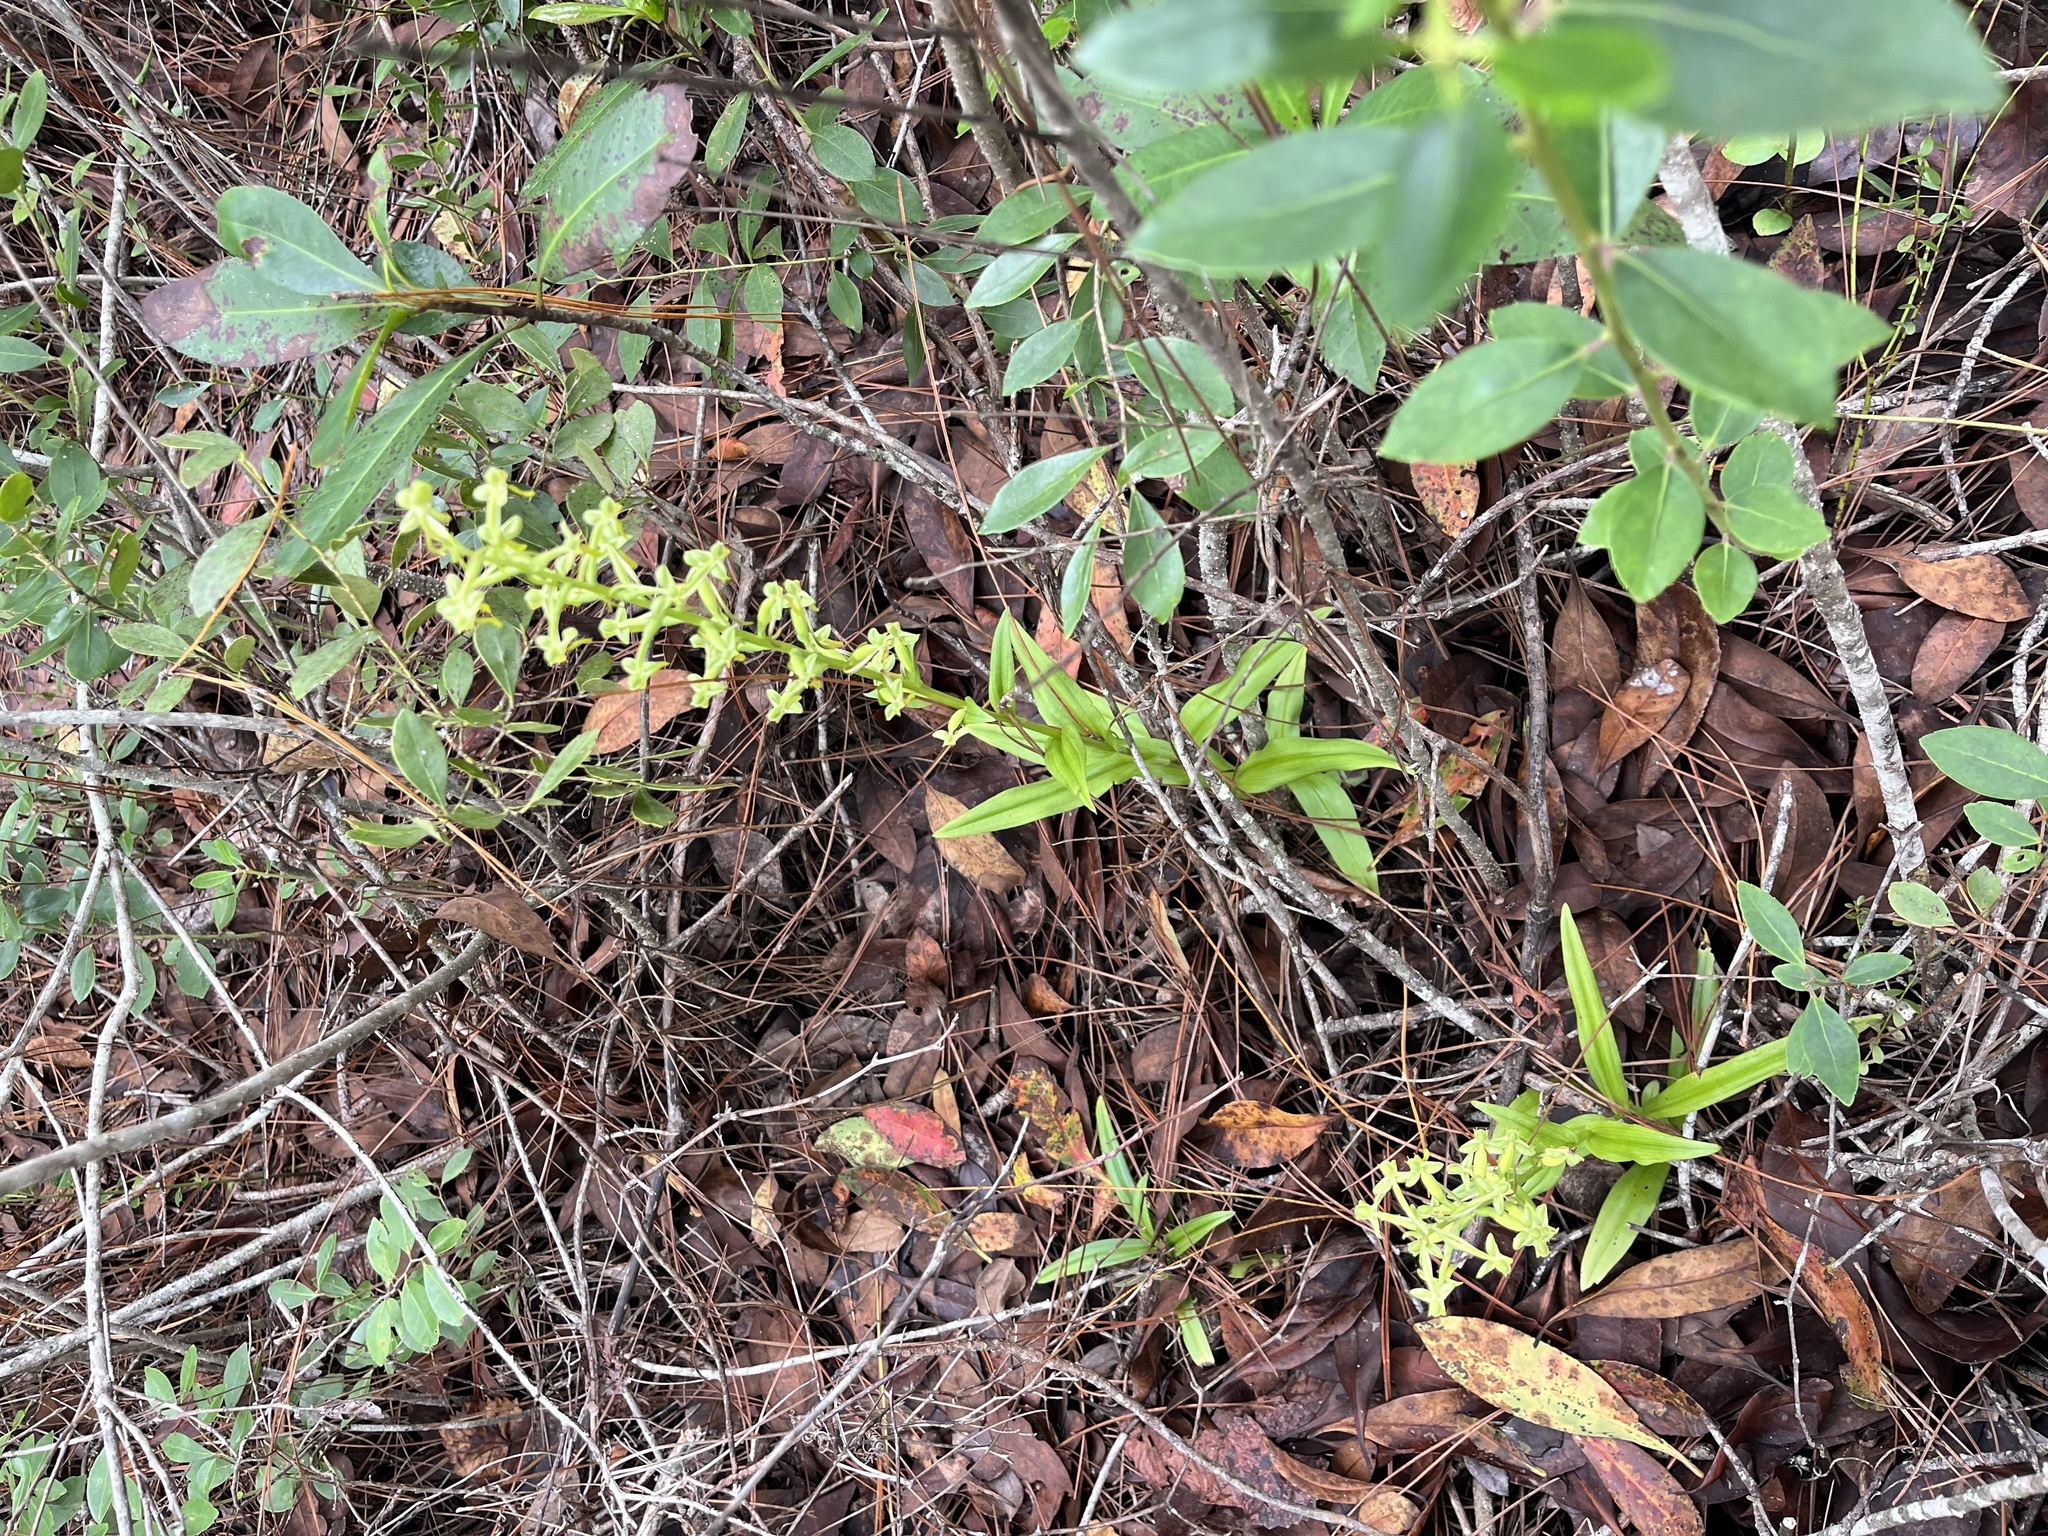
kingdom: Plantae
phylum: Tracheophyta
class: Liliopsida
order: Asparagales
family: Orchidaceae
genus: Habenaria
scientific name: Habenaria floribunda
